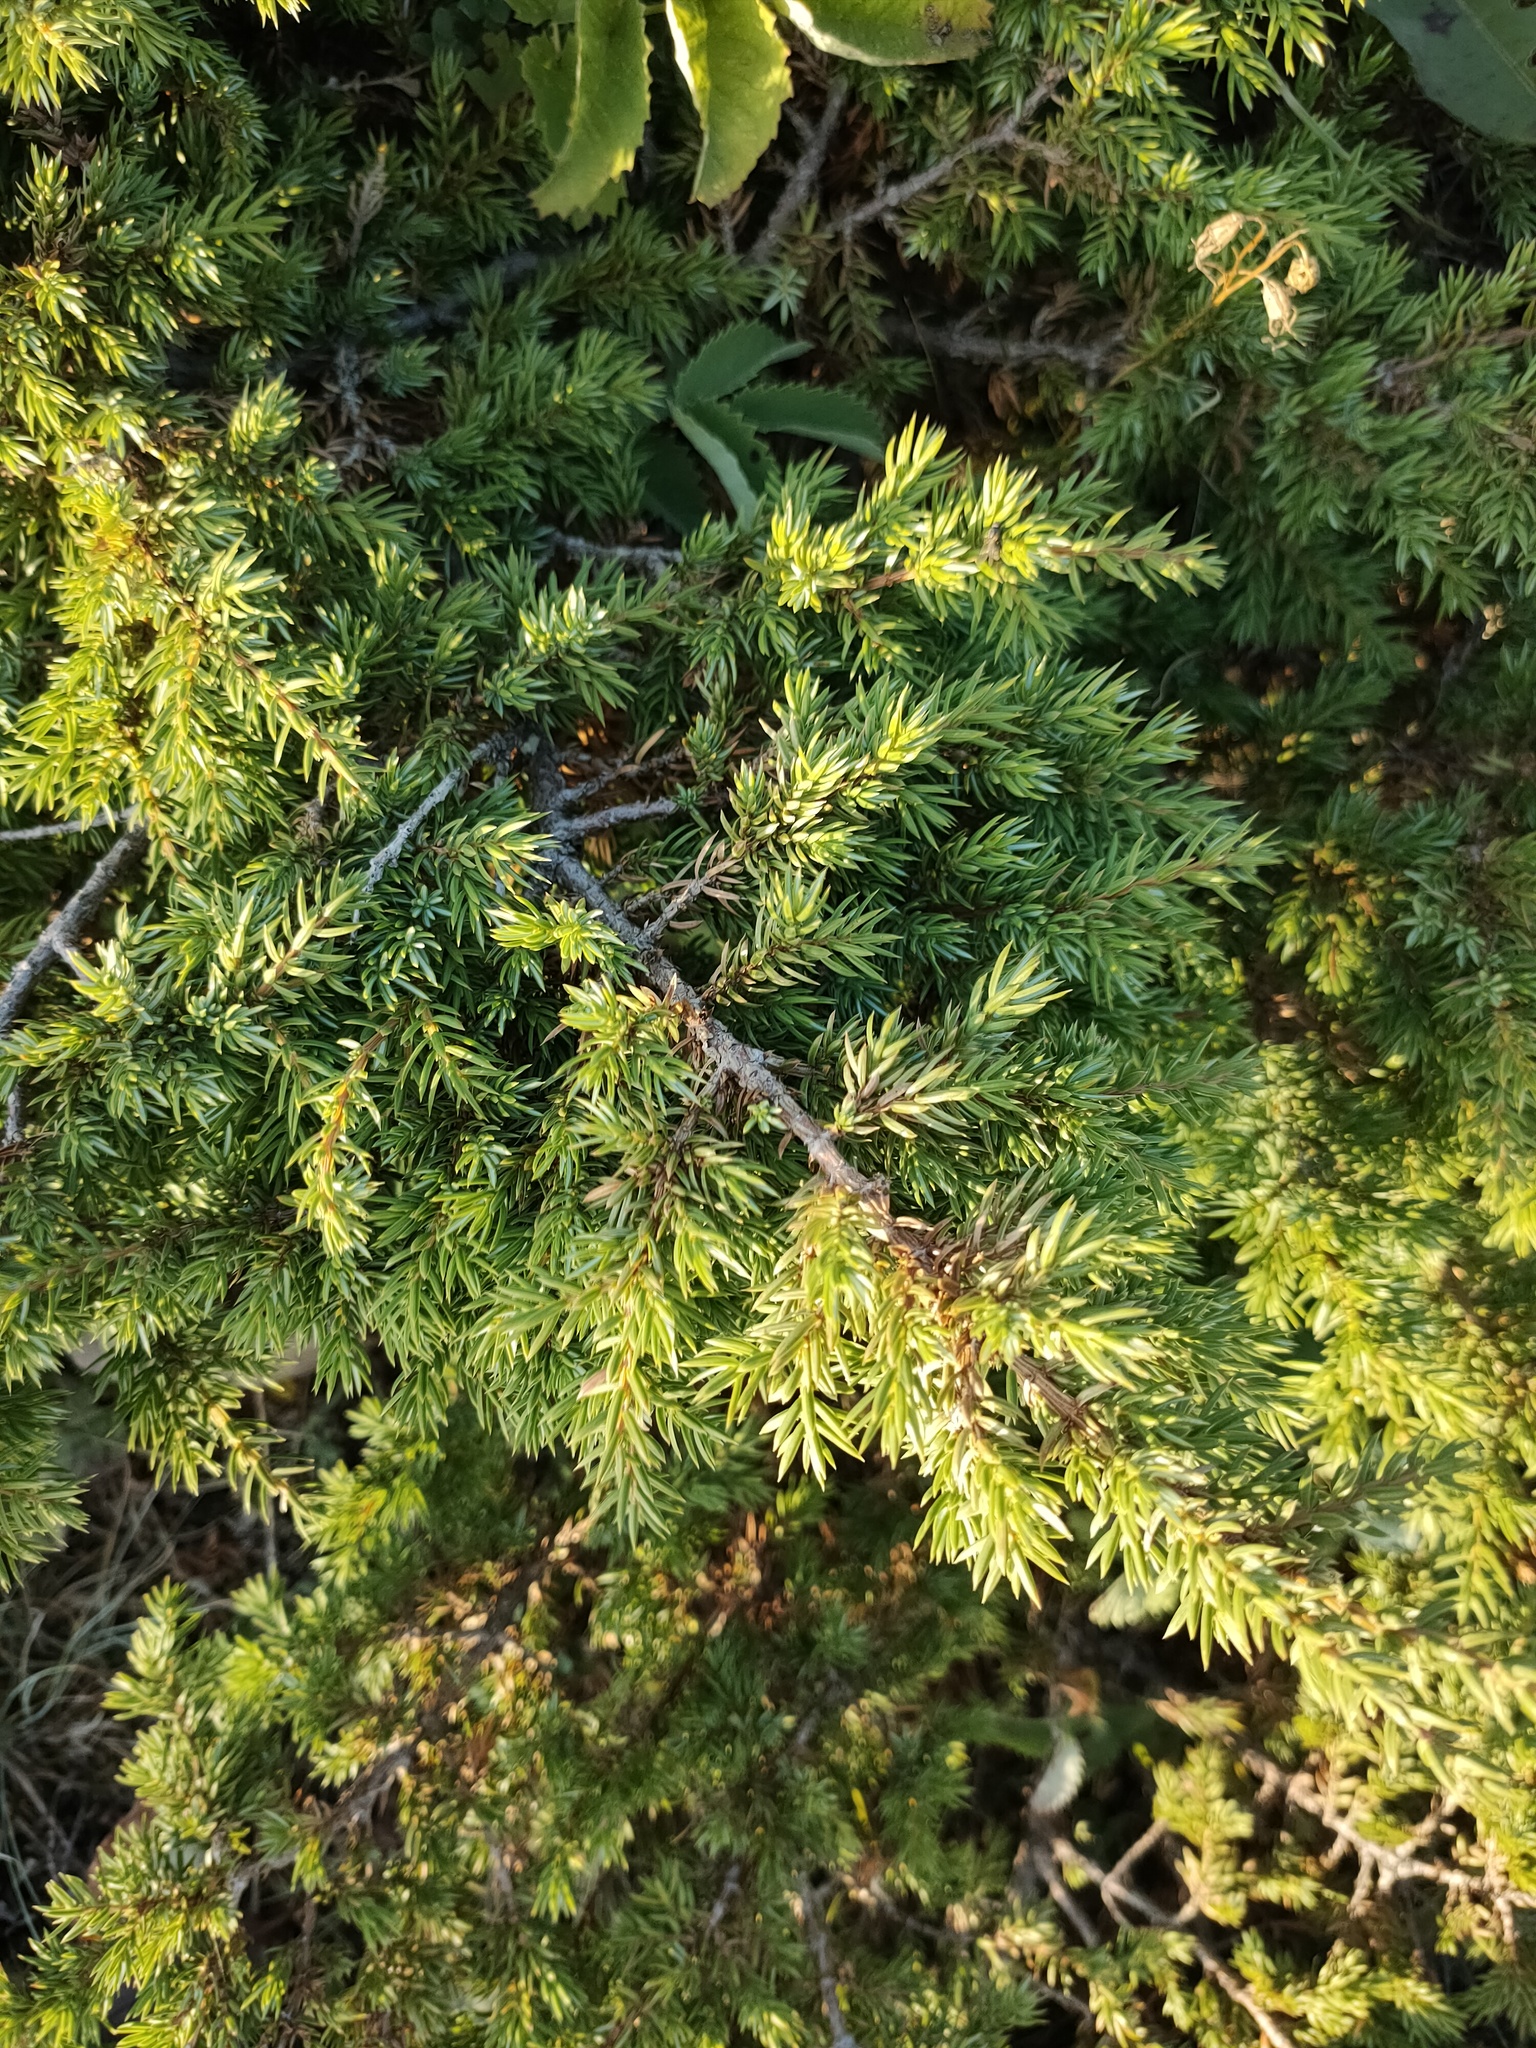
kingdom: Plantae
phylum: Tracheophyta
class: Pinopsida
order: Pinales
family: Cupressaceae
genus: Juniperus
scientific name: Juniperus communis
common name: Common juniper
